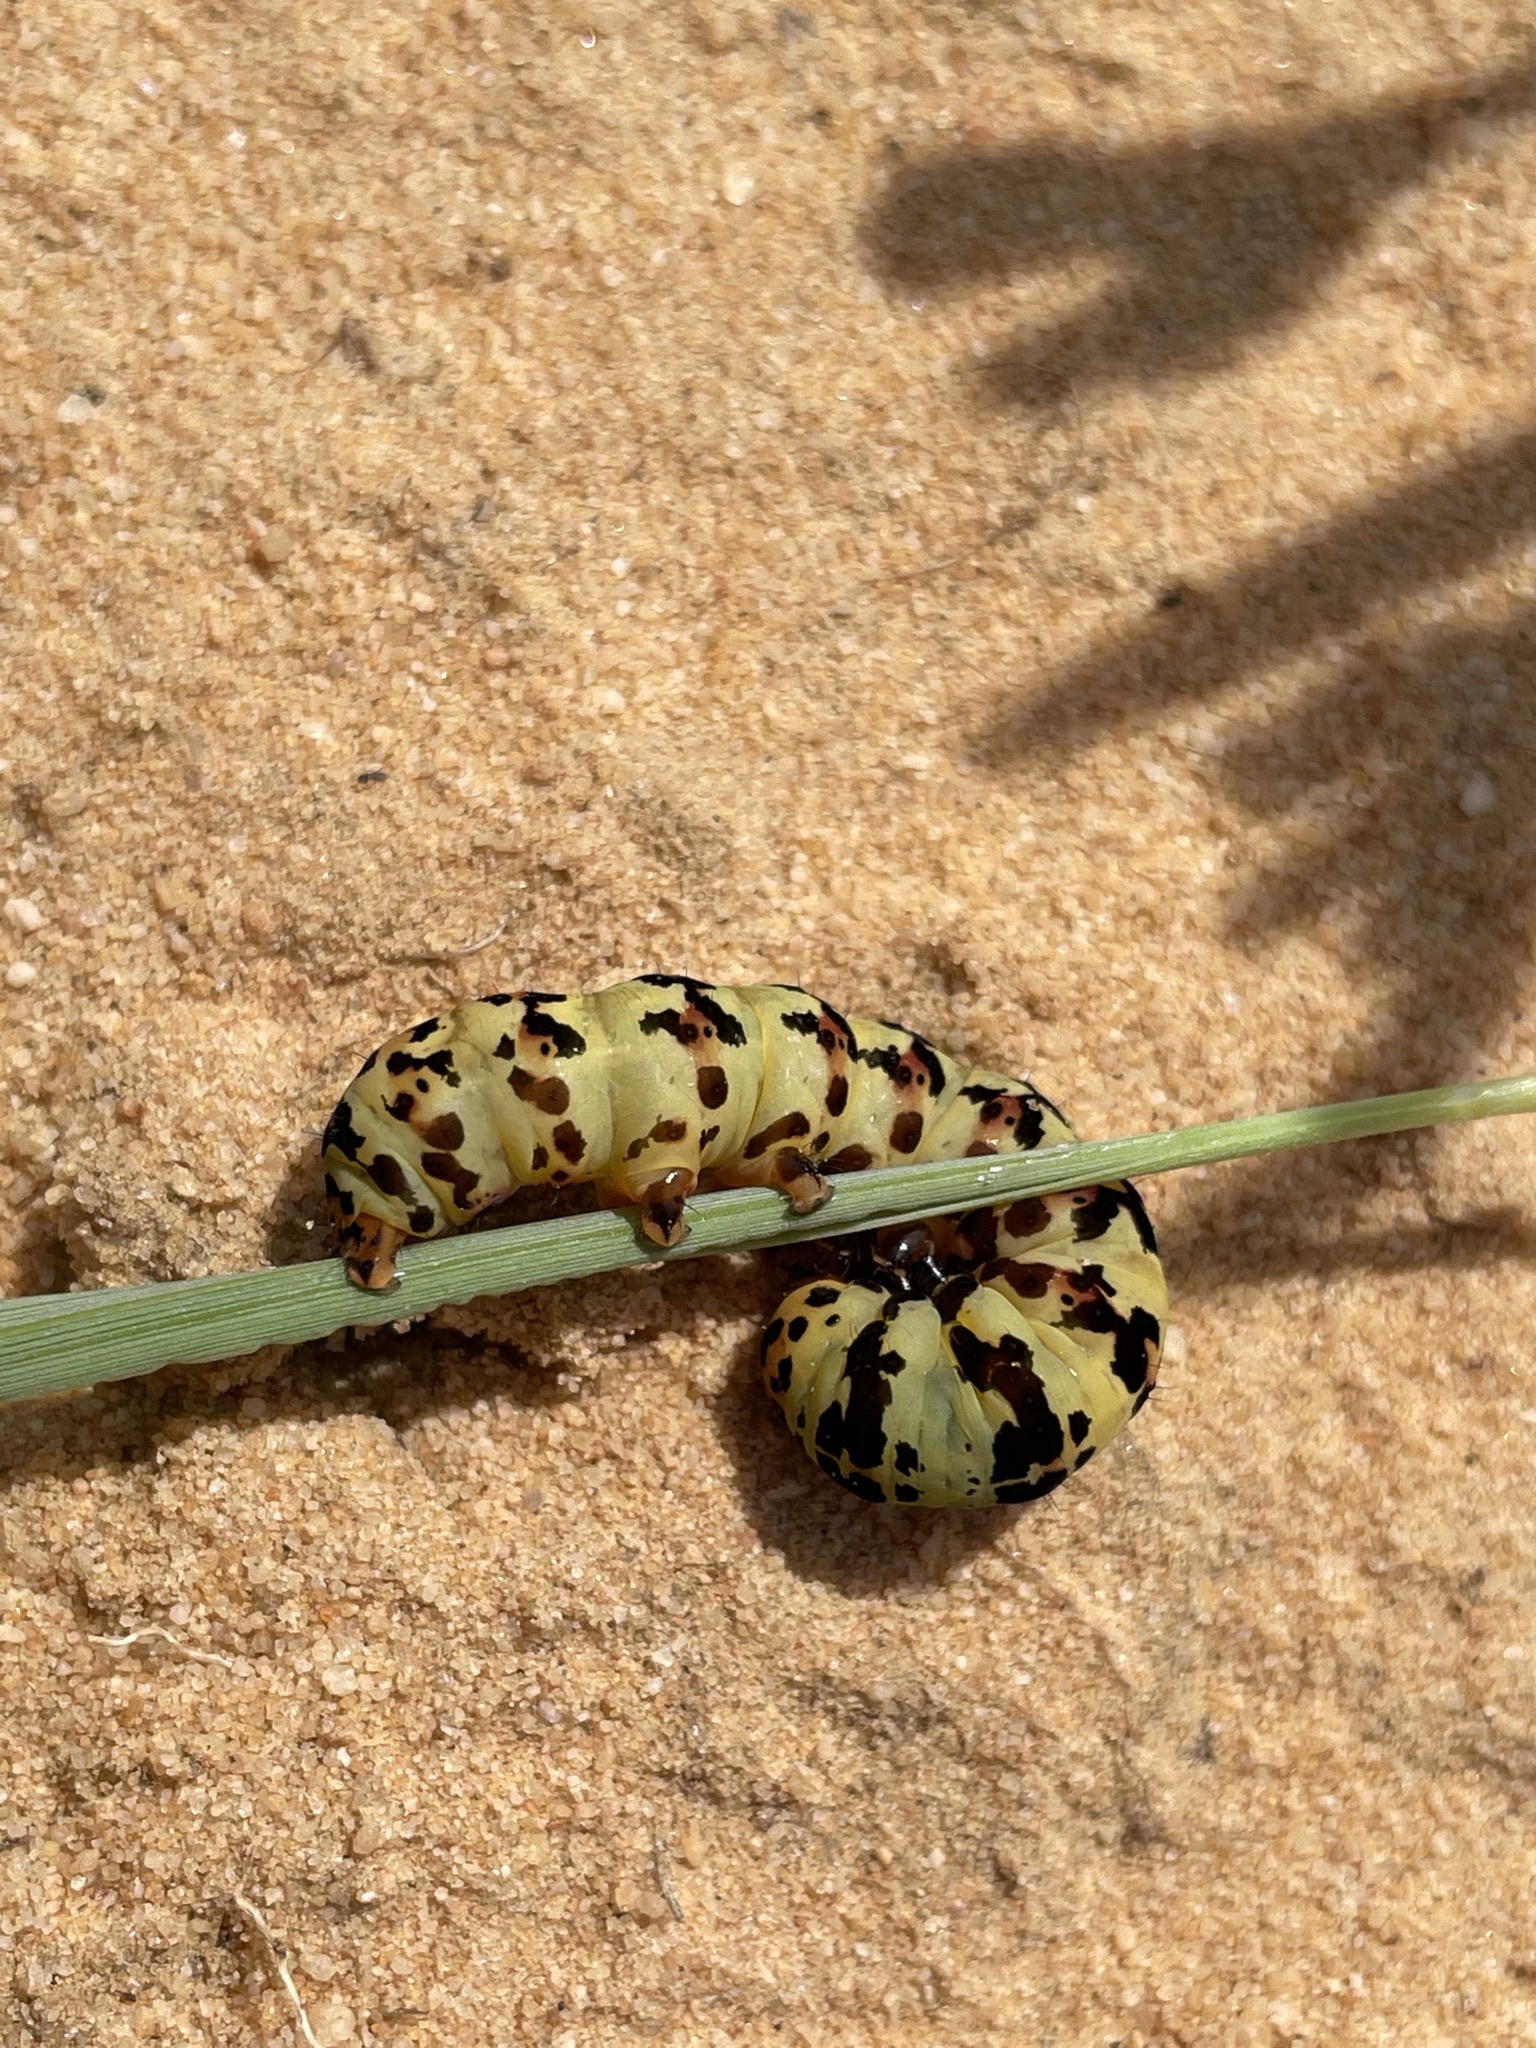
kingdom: Animalia
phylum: Arthropoda
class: Insecta
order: Lepidoptera
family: Noctuidae
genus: Diaphone
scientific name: Diaphone eumela
